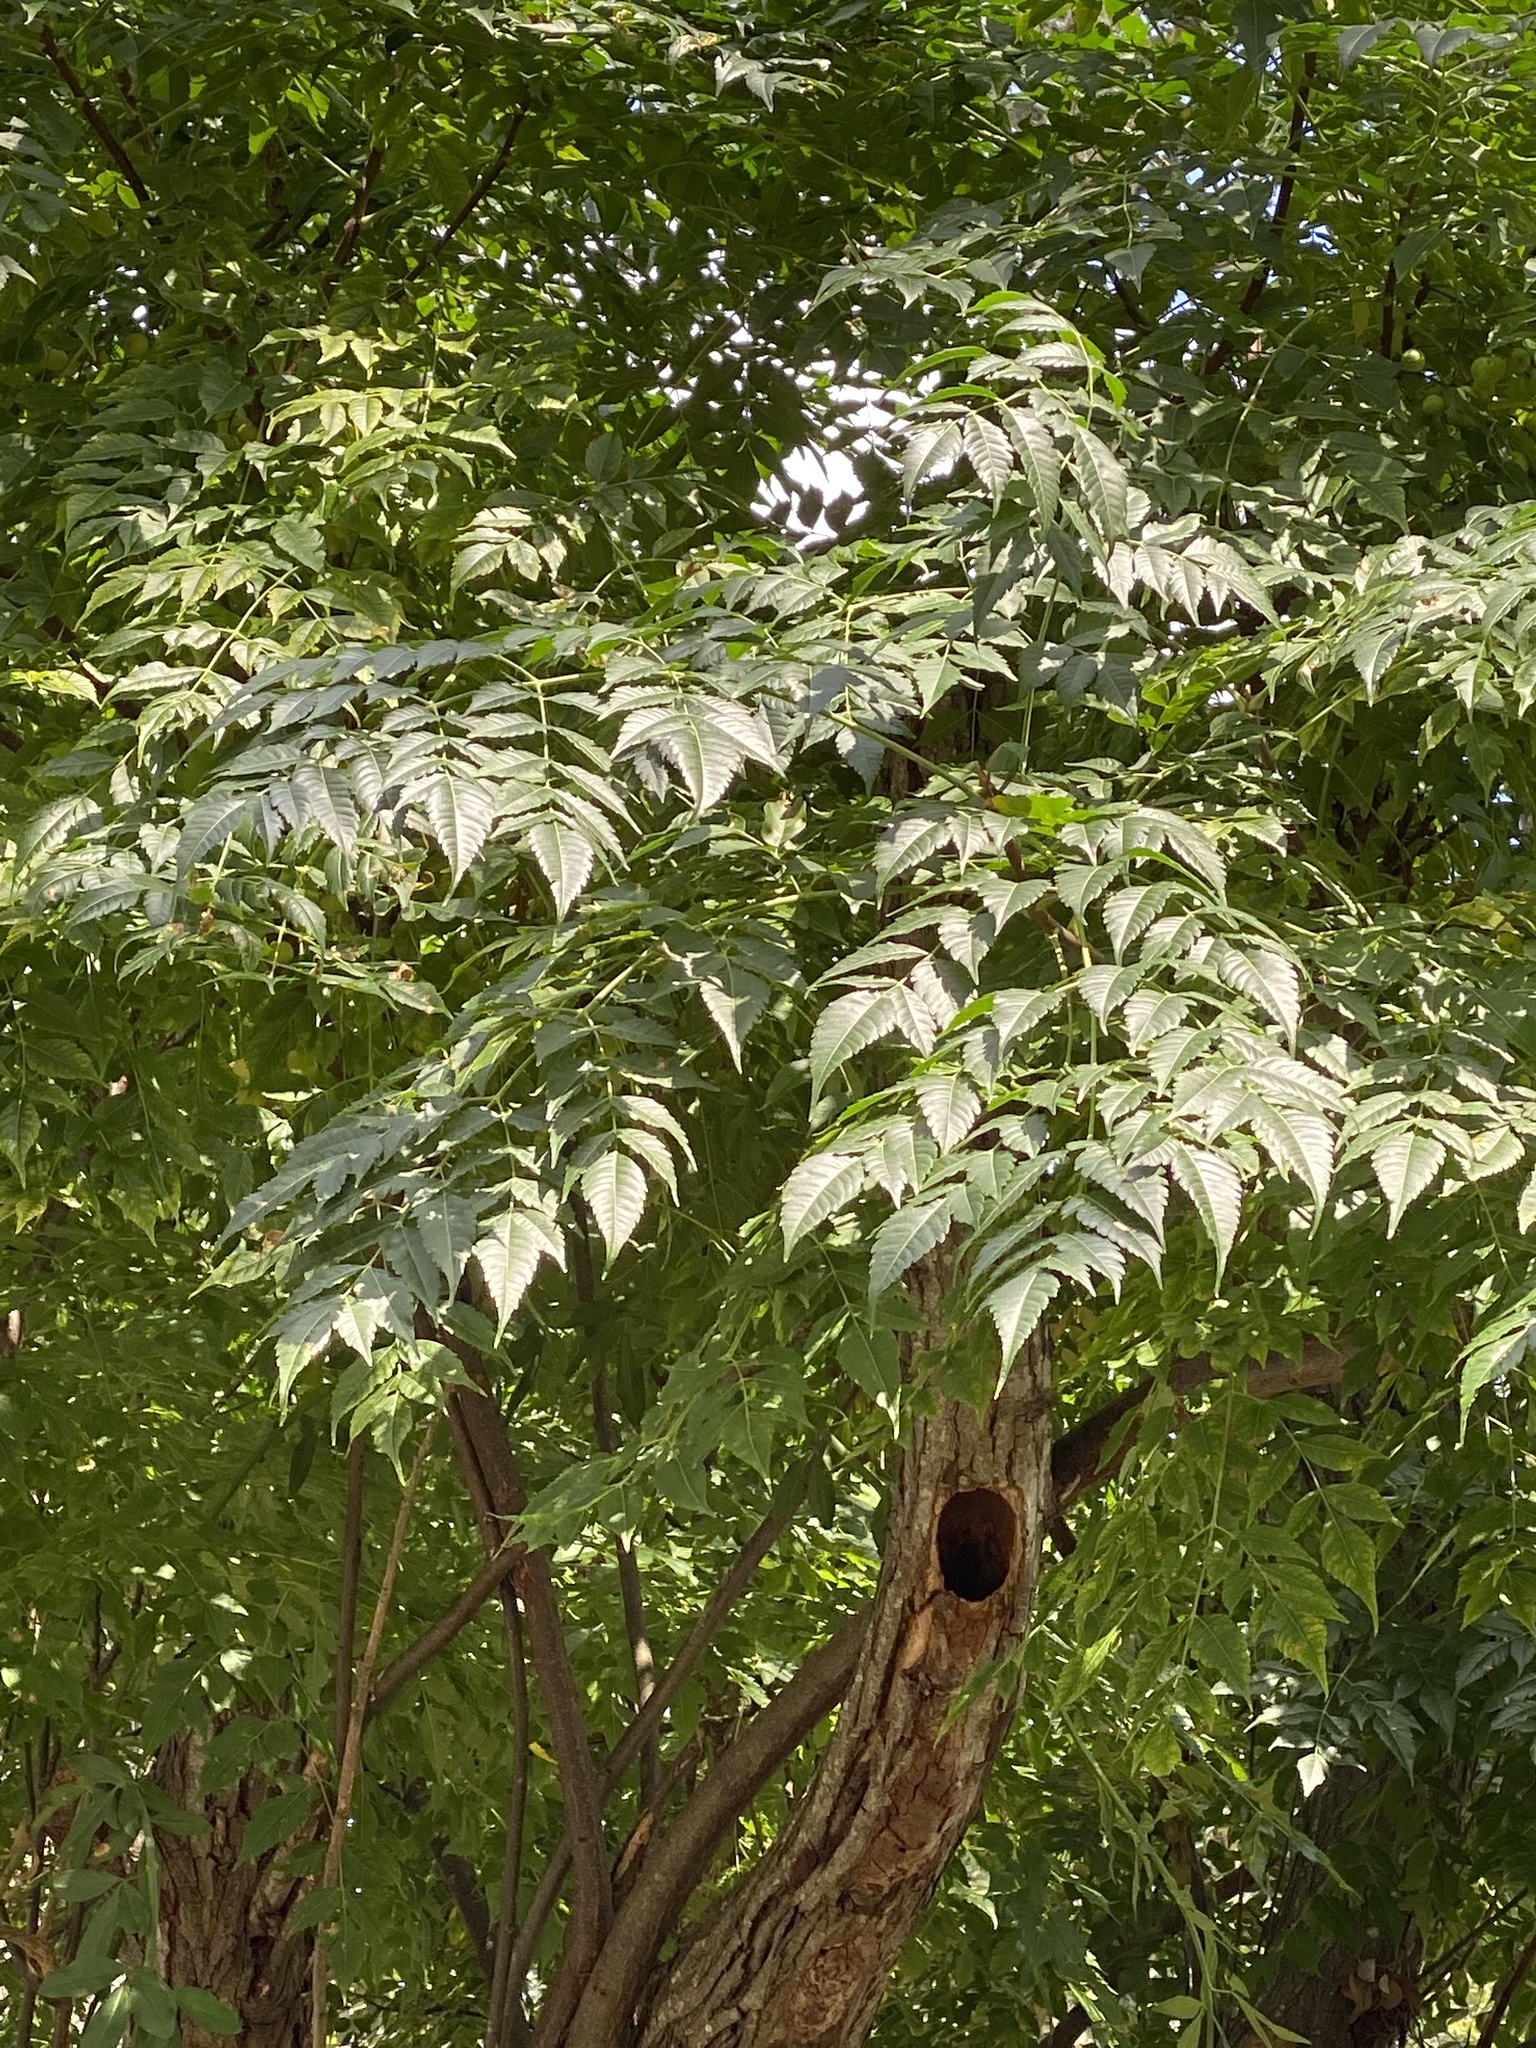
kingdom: Plantae
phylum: Tracheophyta
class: Magnoliopsida
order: Sapindales
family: Meliaceae
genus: Melia
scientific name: Melia azedarach
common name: Chinaberrytree
